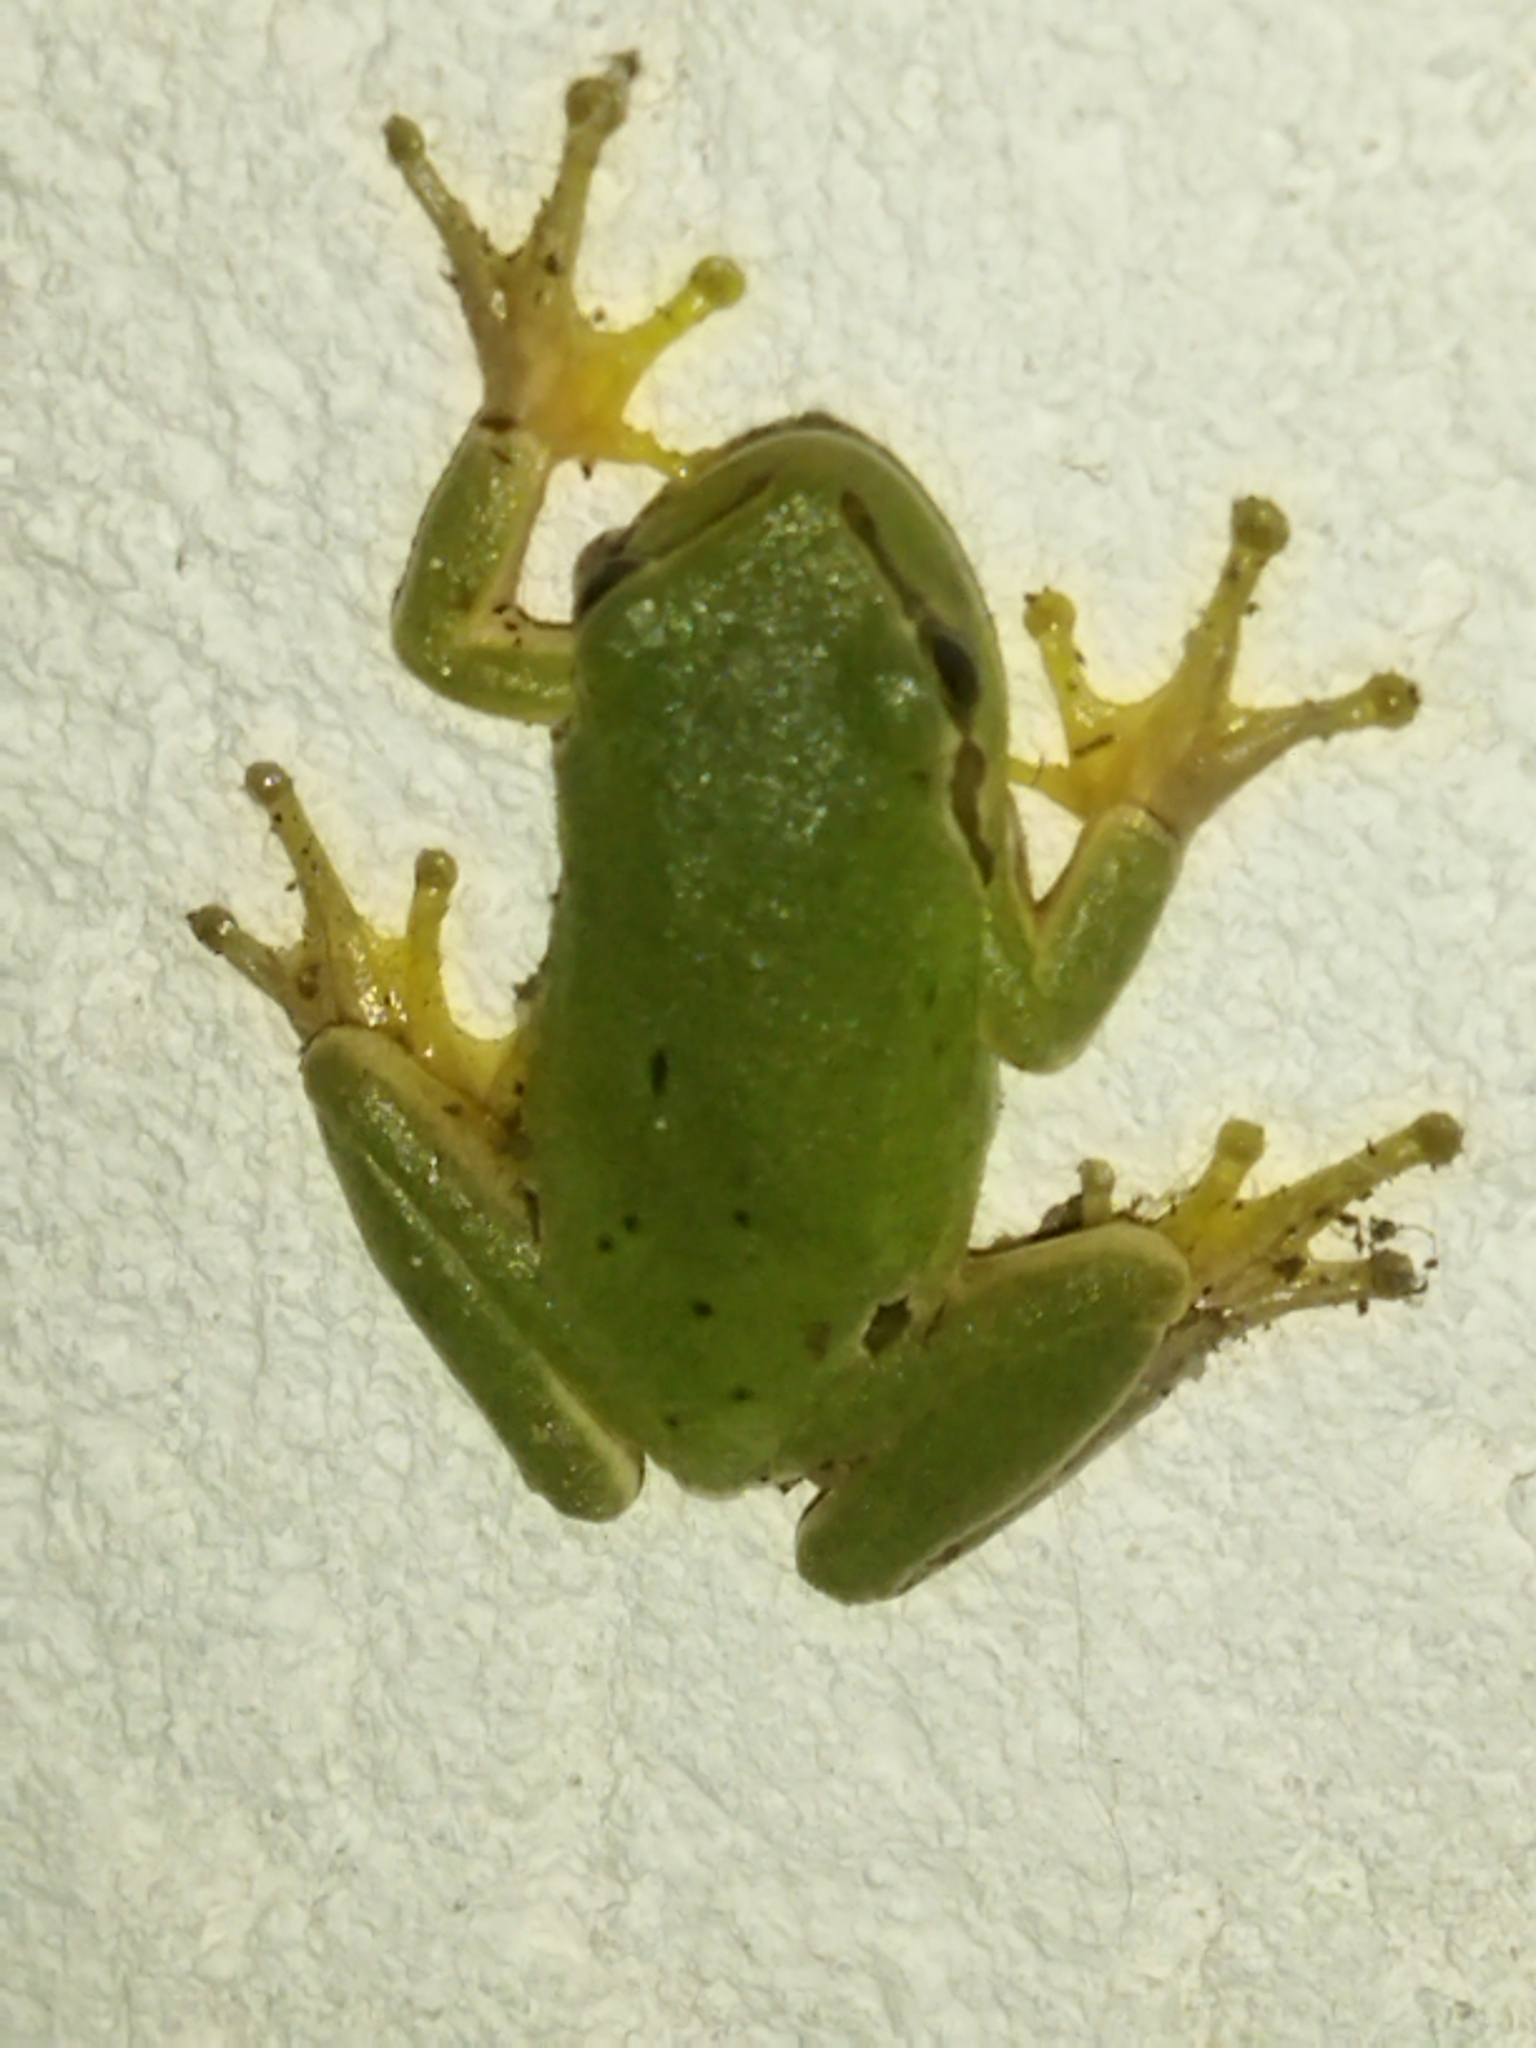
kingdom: Animalia
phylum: Chordata
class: Amphibia
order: Anura
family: Hylidae
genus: Hyla
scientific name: Hyla orientalis
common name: Caucasian treefrog
